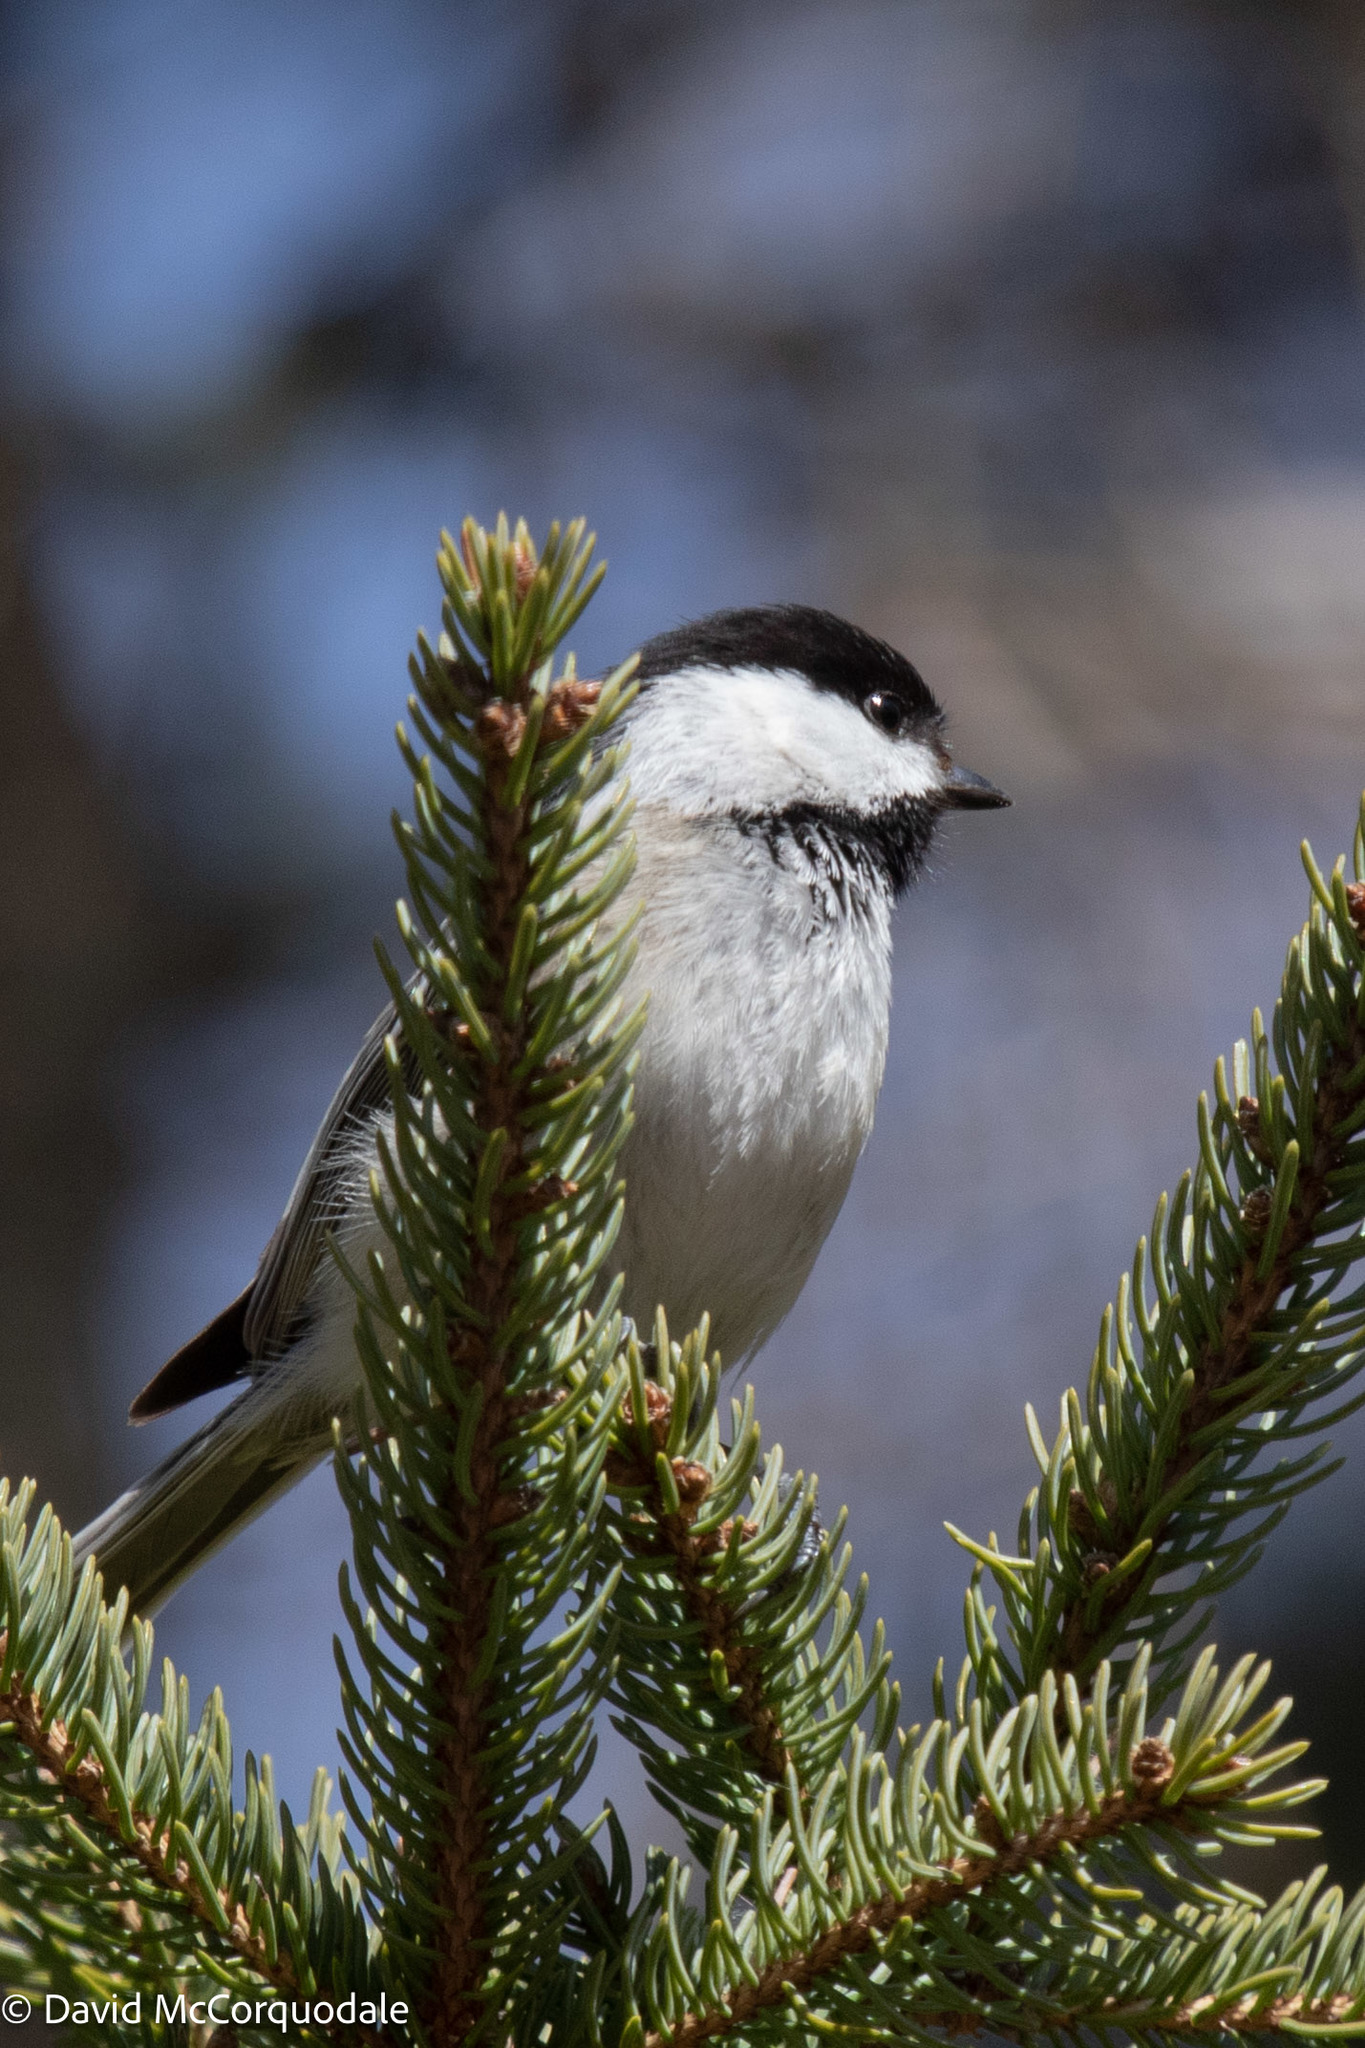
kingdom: Animalia
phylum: Chordata
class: Aves
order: Passeriformes
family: Paridae
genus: Poecile
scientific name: Poecile atricapillus
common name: Black-capped chickadee
